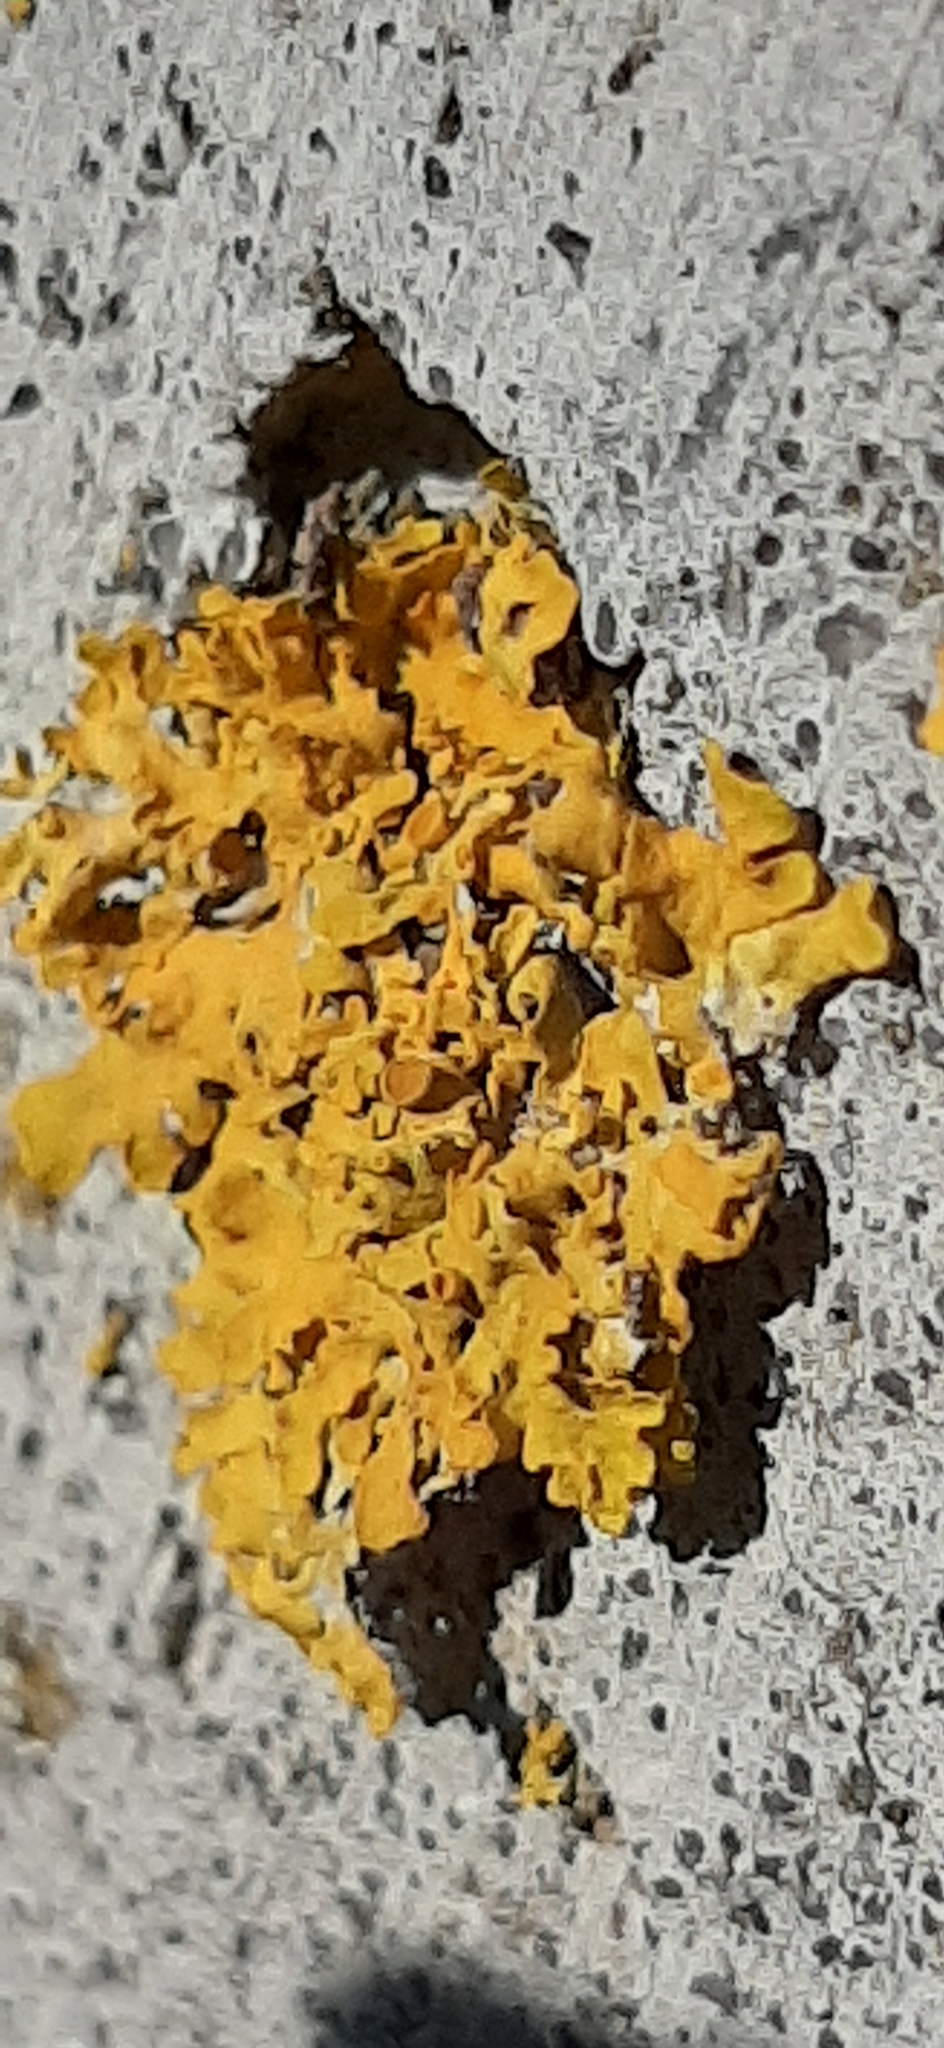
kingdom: Fungi
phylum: Ascomycota
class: Lecanoromycetes
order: Teloschistales
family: Teloschistaceae
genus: Xanthoria
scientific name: Xanthoria parietina
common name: Common orange lichen
